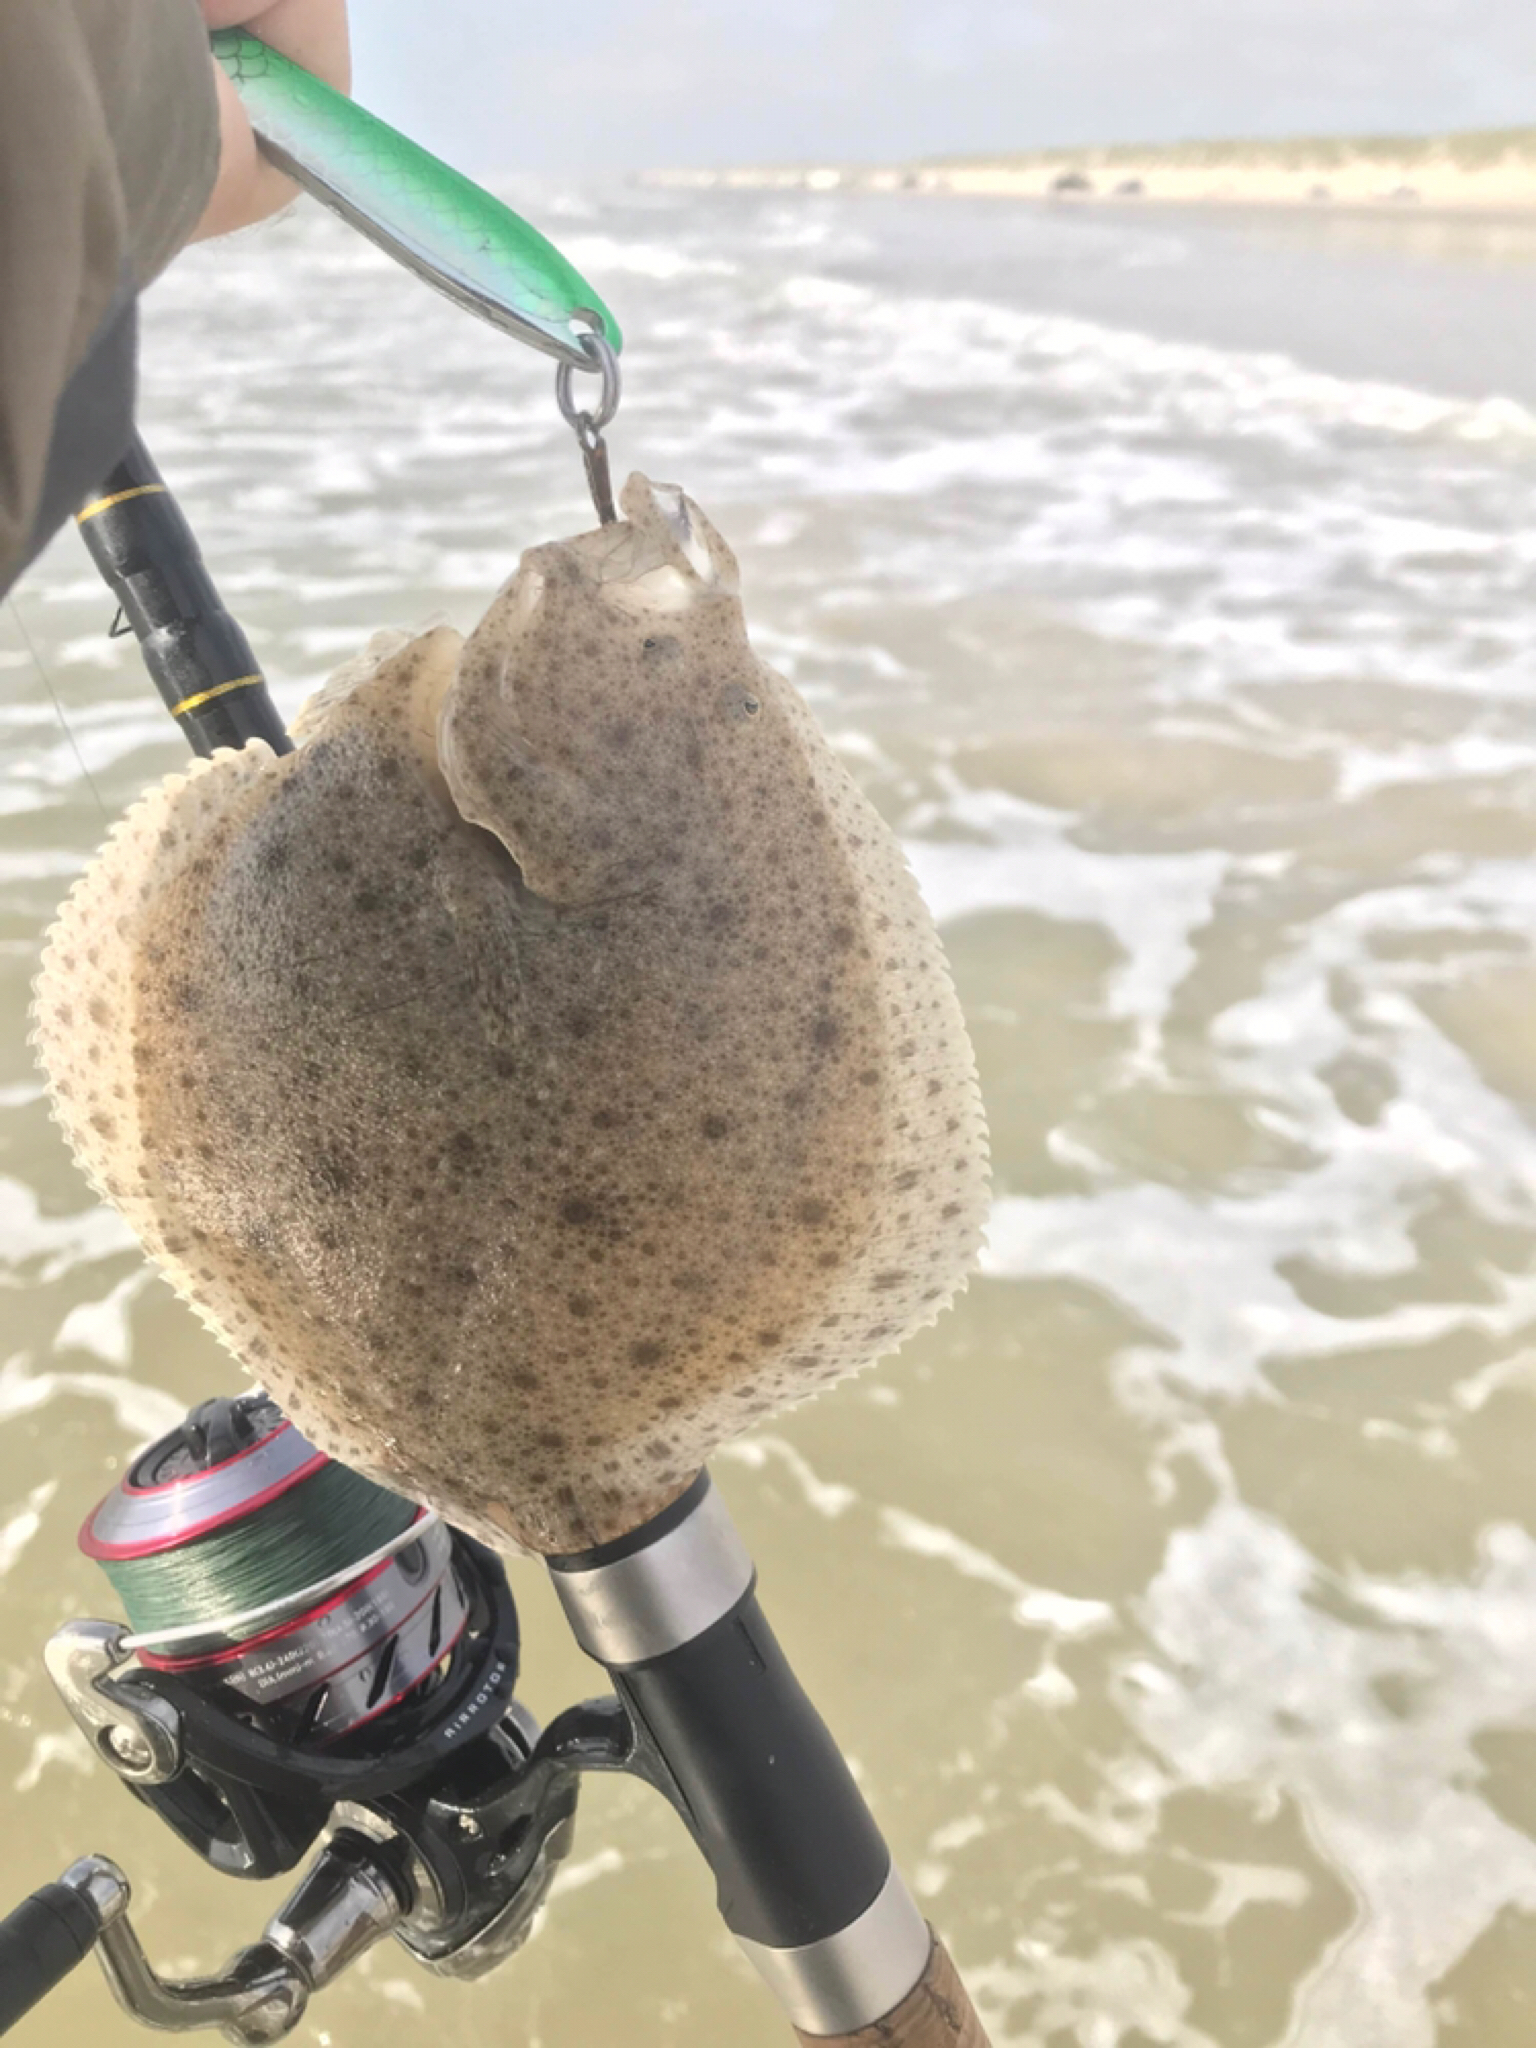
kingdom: Animalia
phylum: Chordata
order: Pleuronectiformes
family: Scophthalmidae
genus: Scophthalmus
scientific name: Scophthalmus maximus
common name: Turbot
